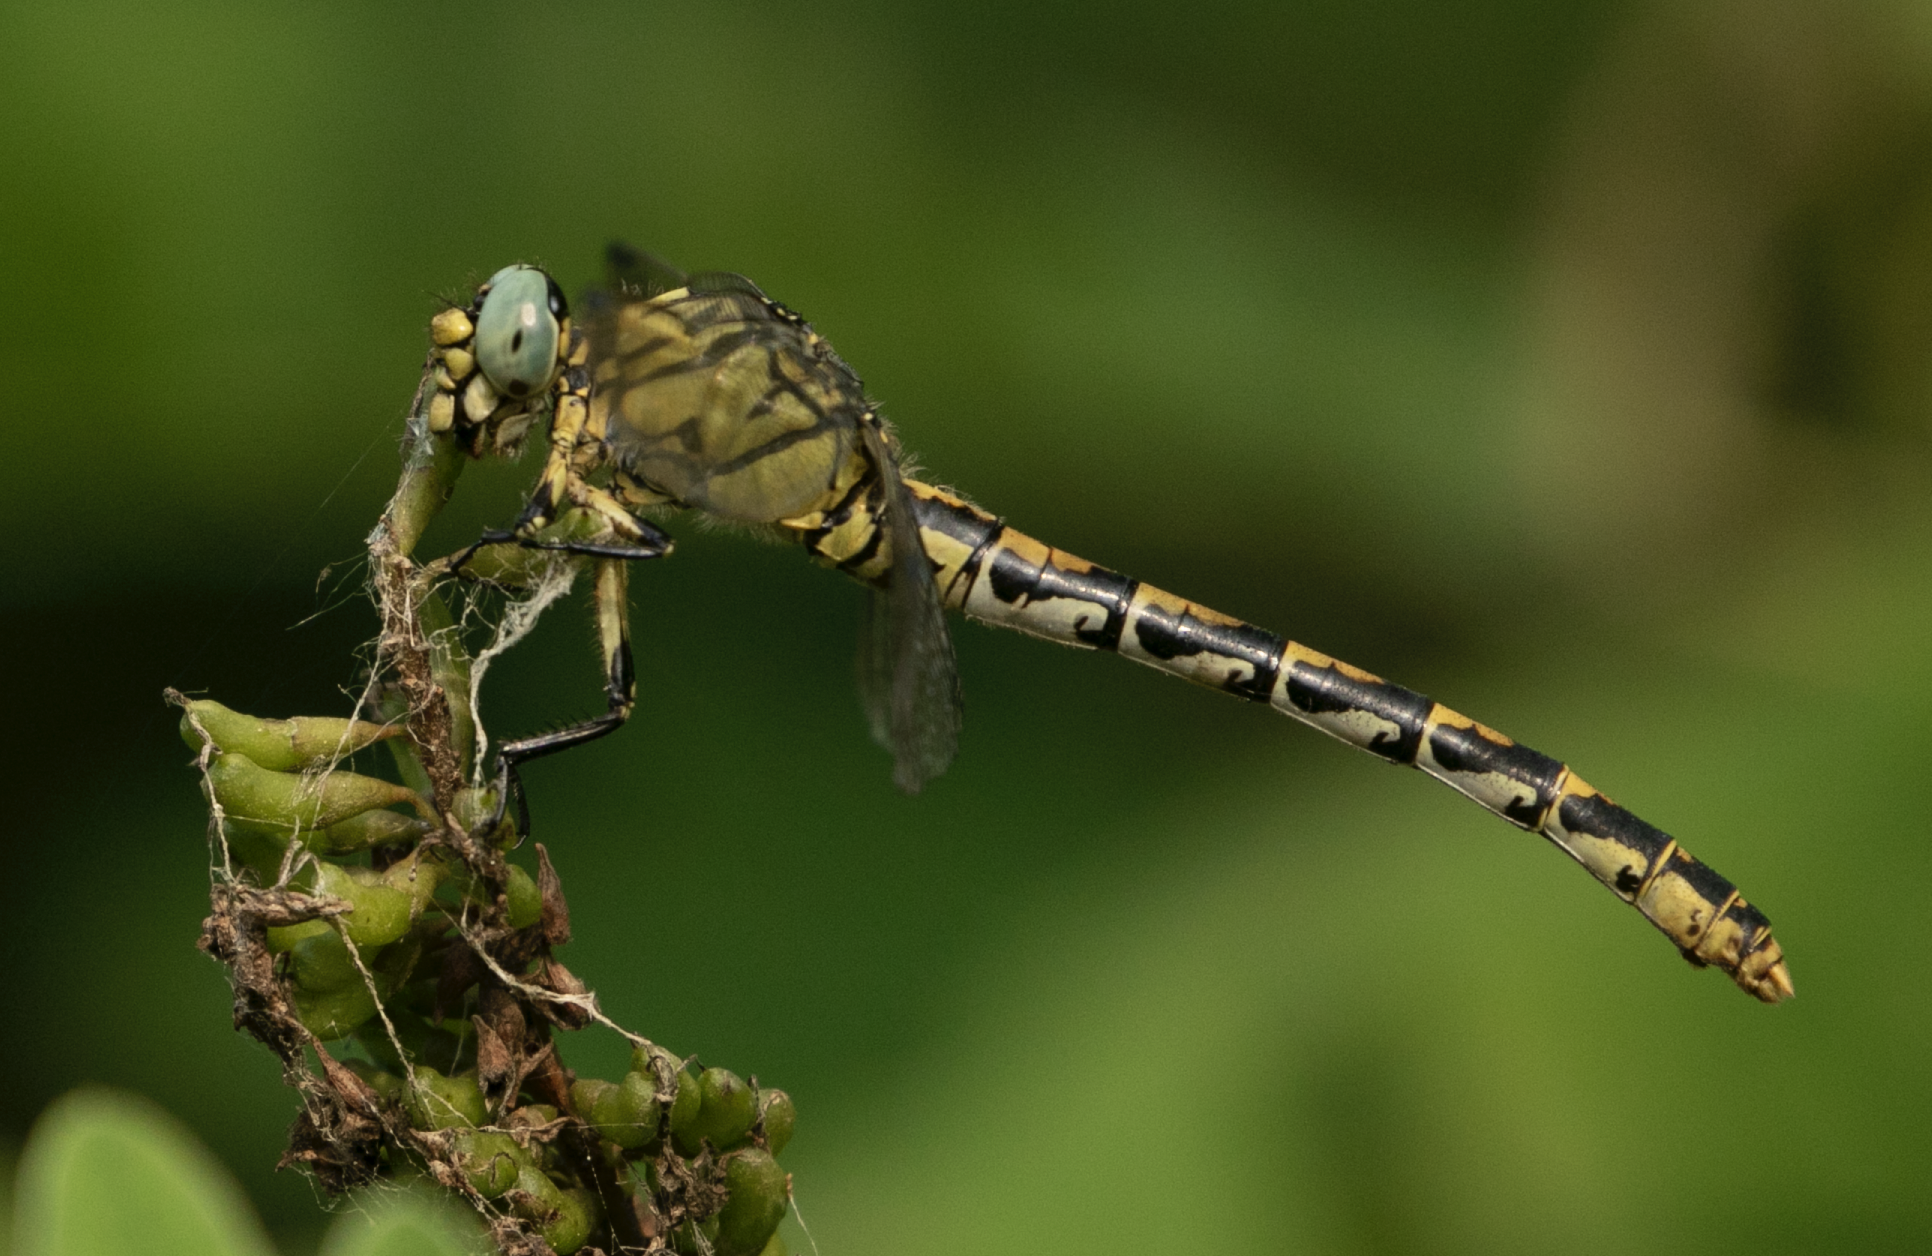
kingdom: Animalia
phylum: Arthropoda
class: Insecta
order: Odonata
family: Gomphidae
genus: Onychogomphus
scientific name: Onychogomphus forcipatus
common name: Small pincertail
